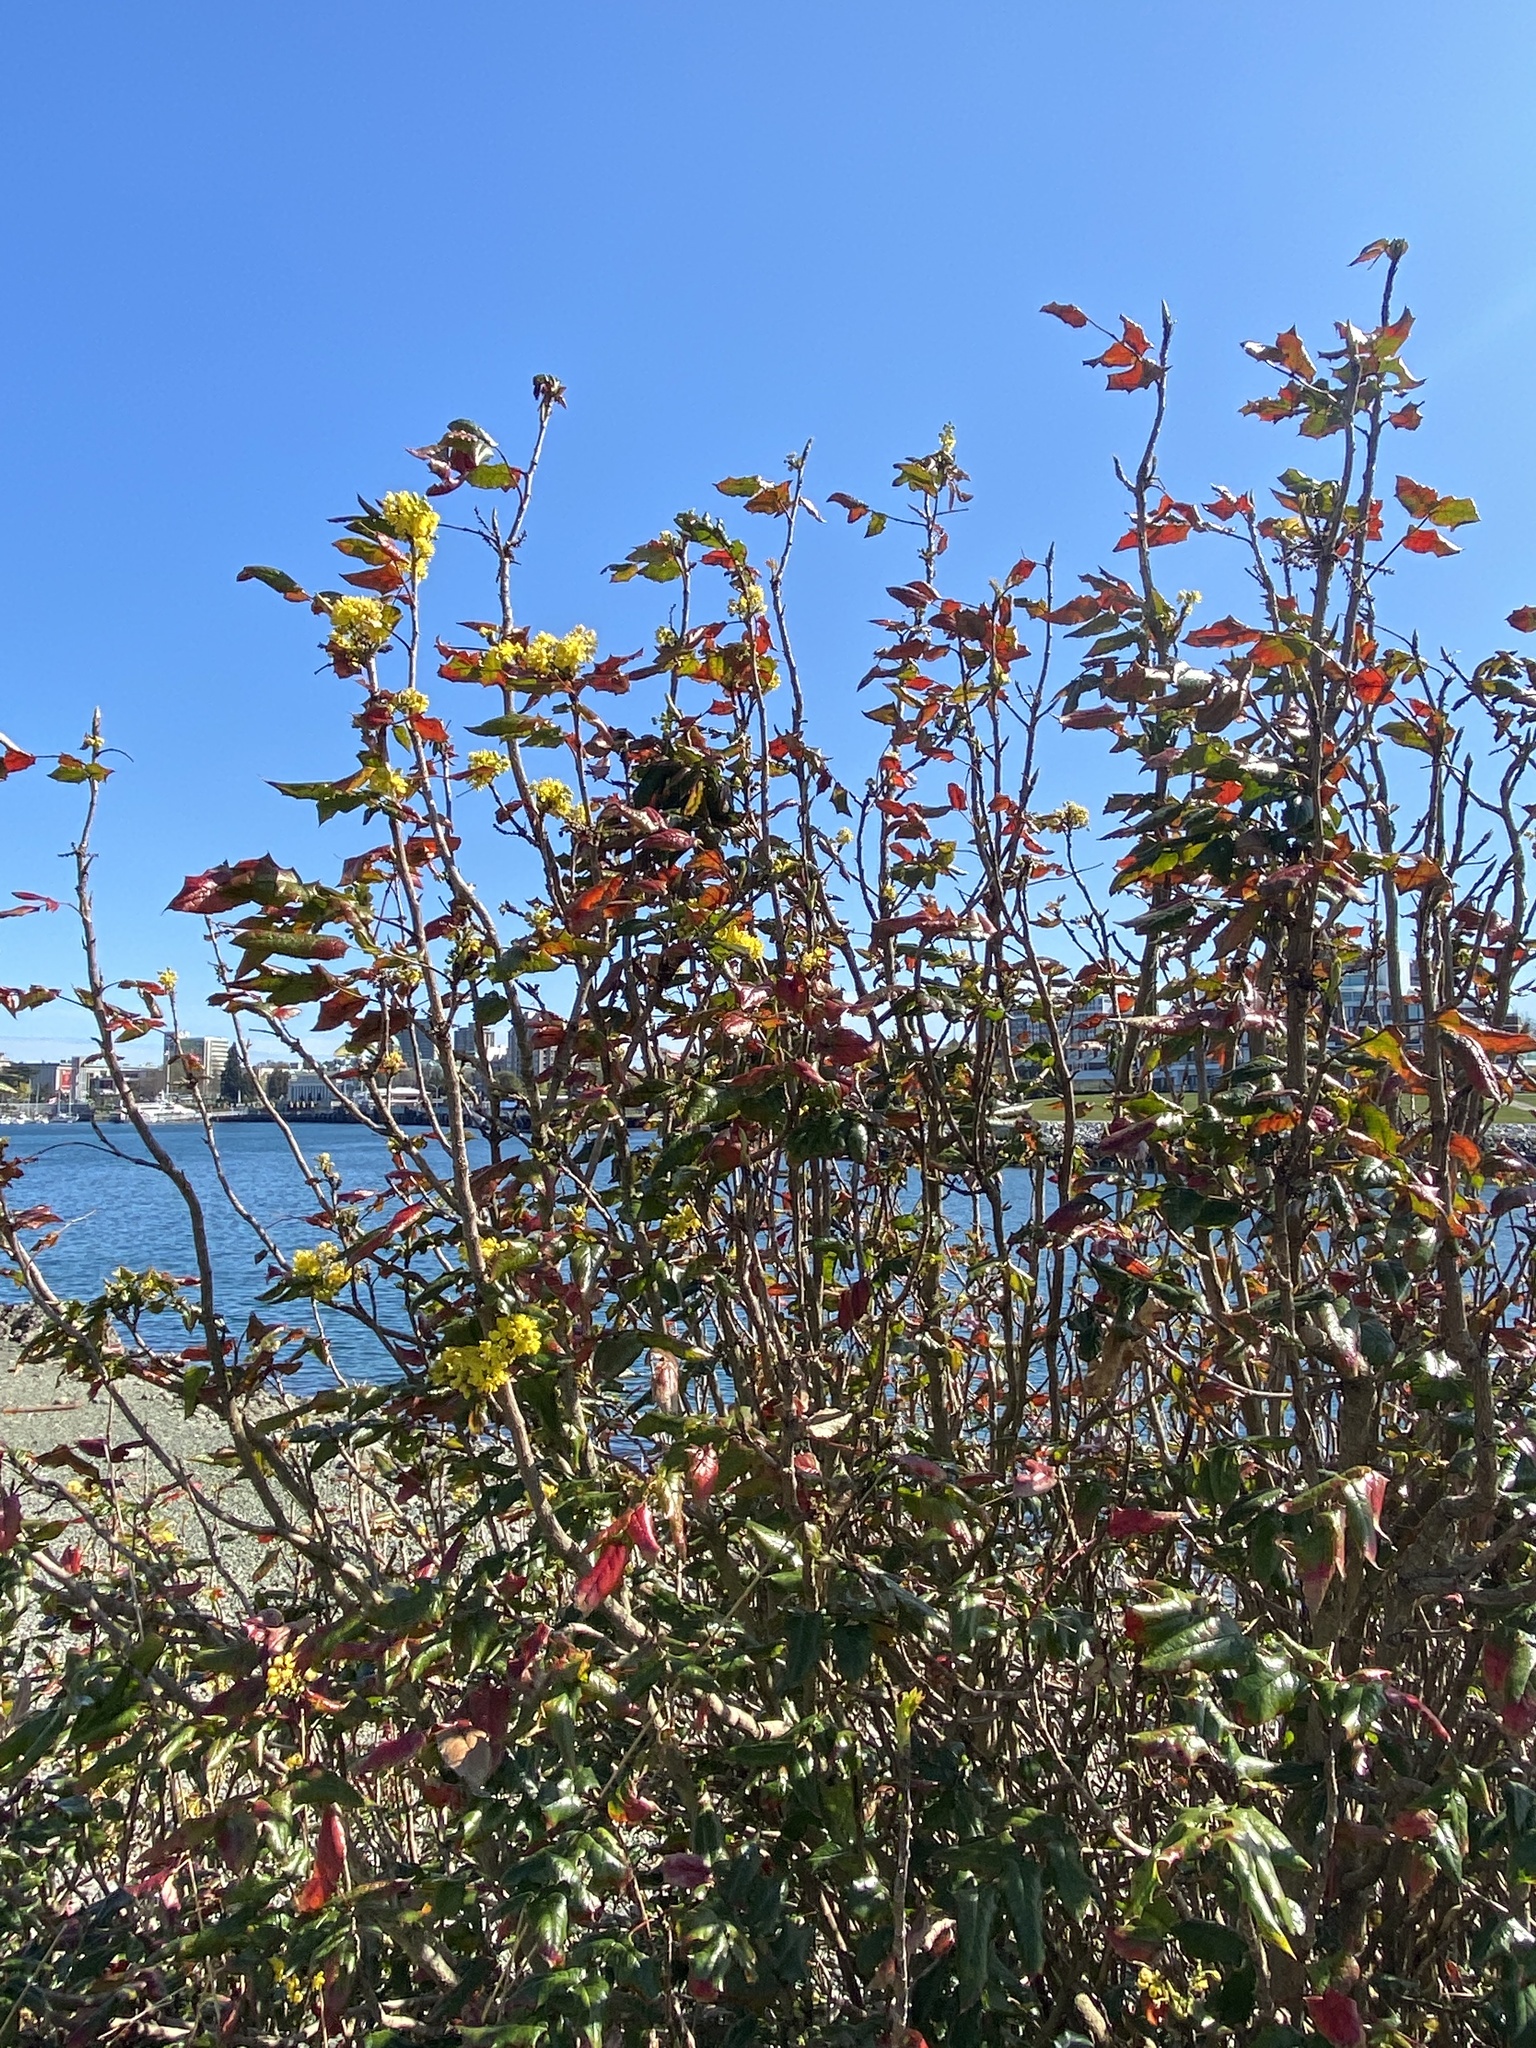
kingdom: Plantae
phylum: Tracheophyta
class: Magnoliopsida
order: Ranunculales
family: Berberidaceae
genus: Mahonia
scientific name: Mahonia aquifolium
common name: Oregon-grape
